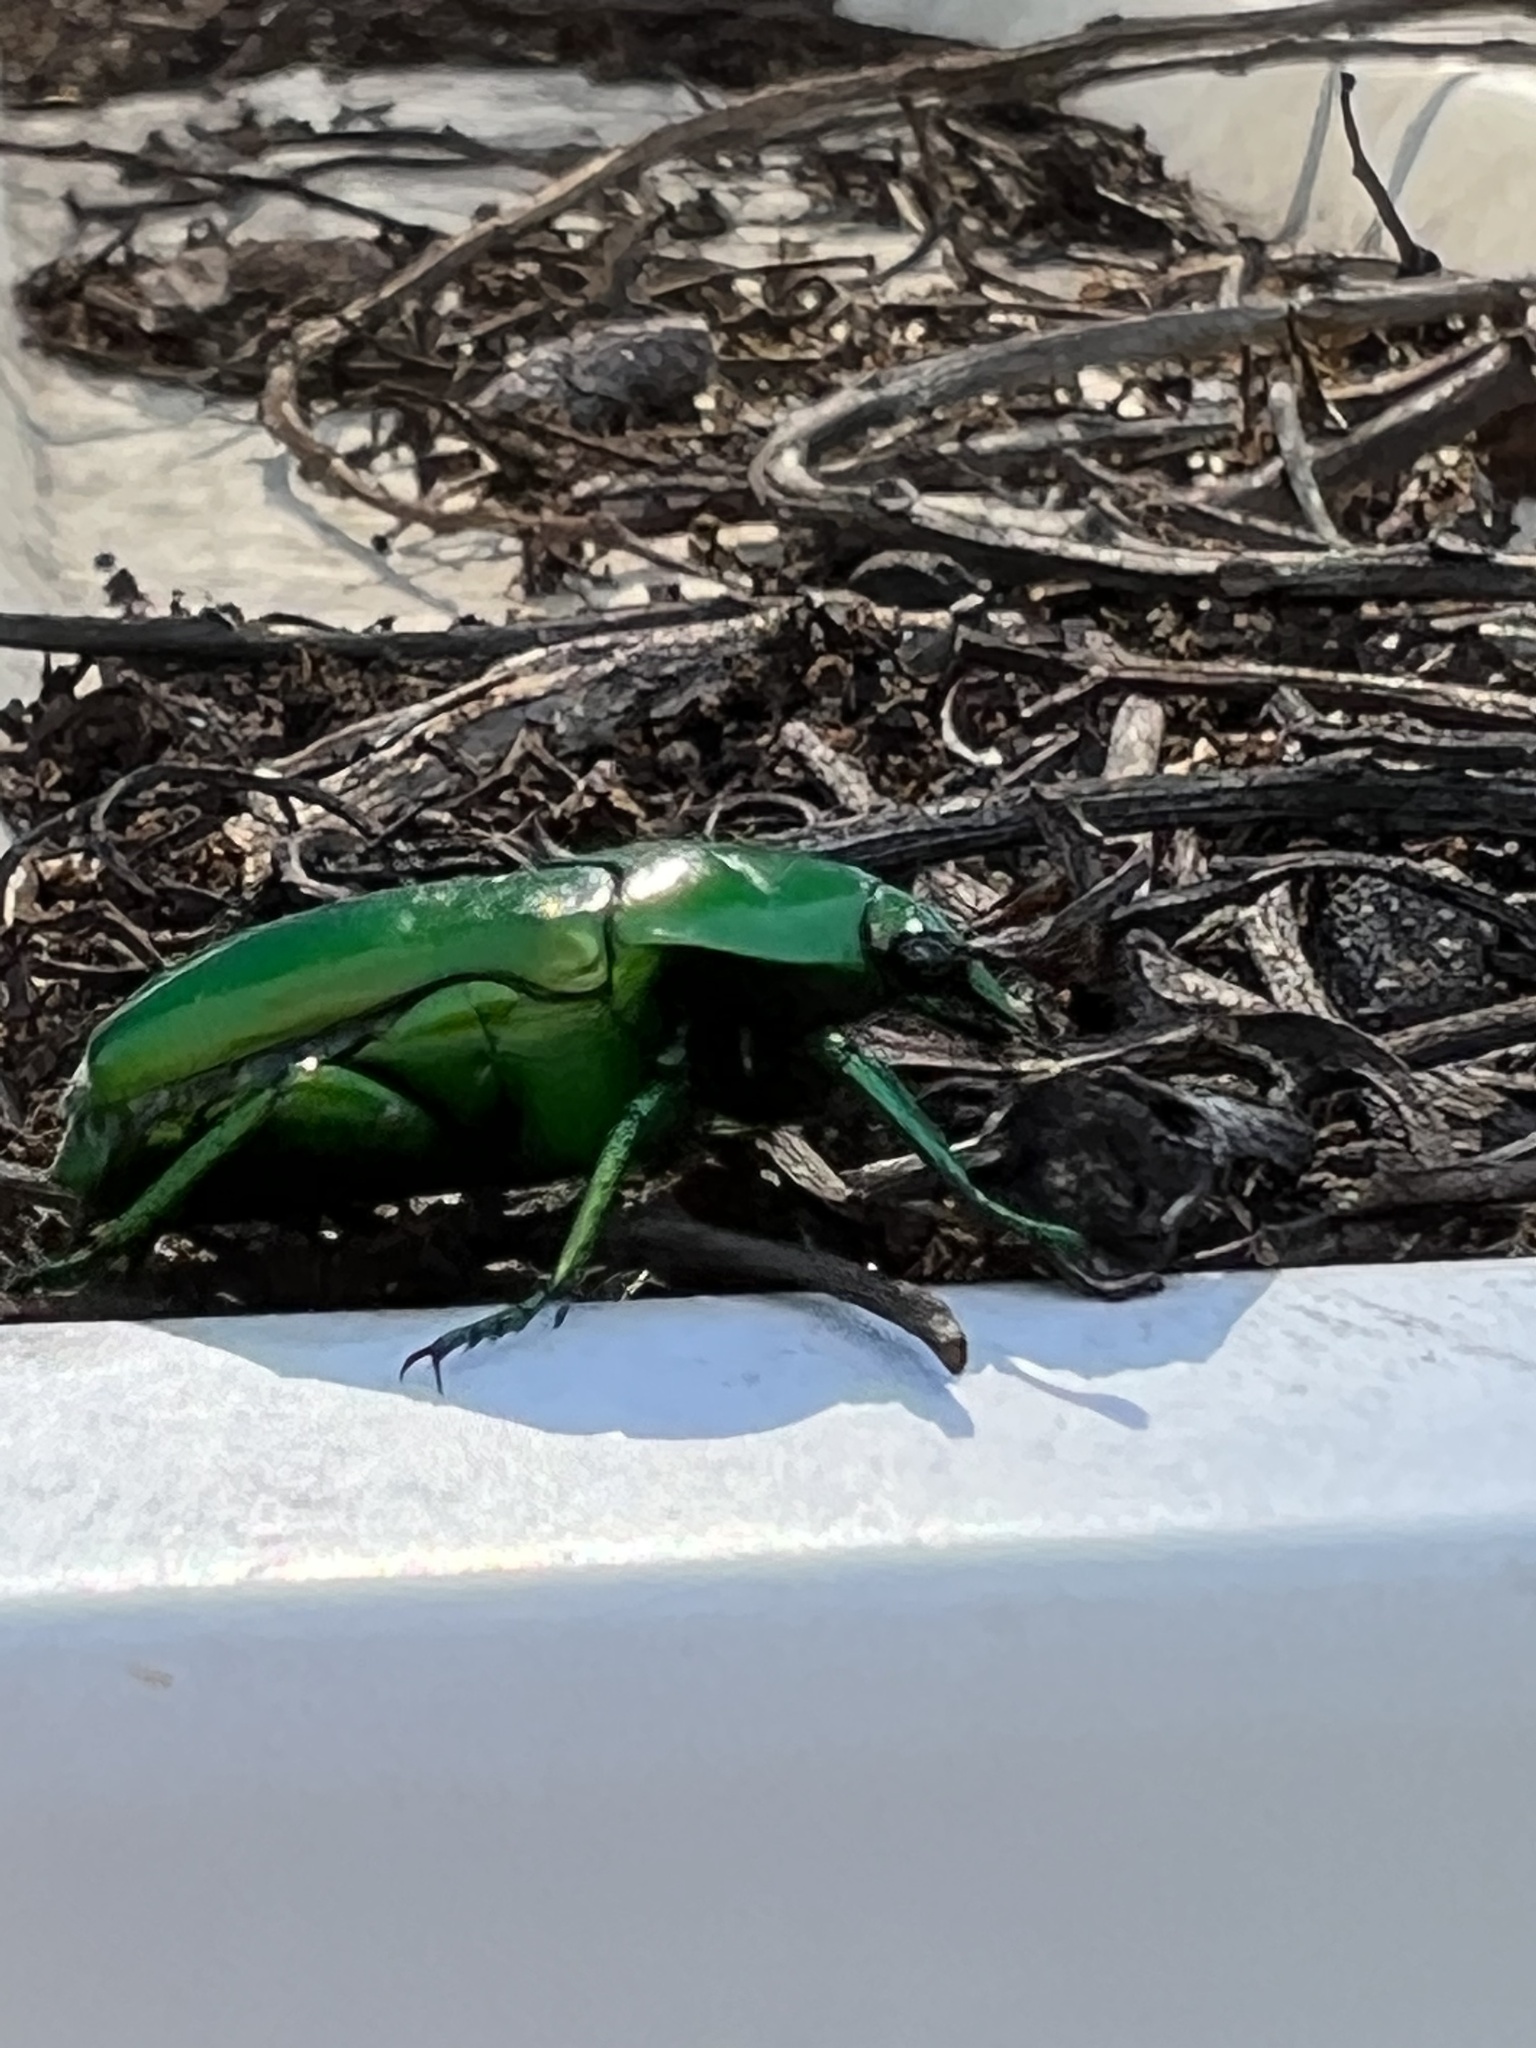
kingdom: Animalia
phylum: Arthropoda
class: Insecta
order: Coleoptera
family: Scarabaeidae
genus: Ischiopsopha
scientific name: Ischiopsopha wallacei
